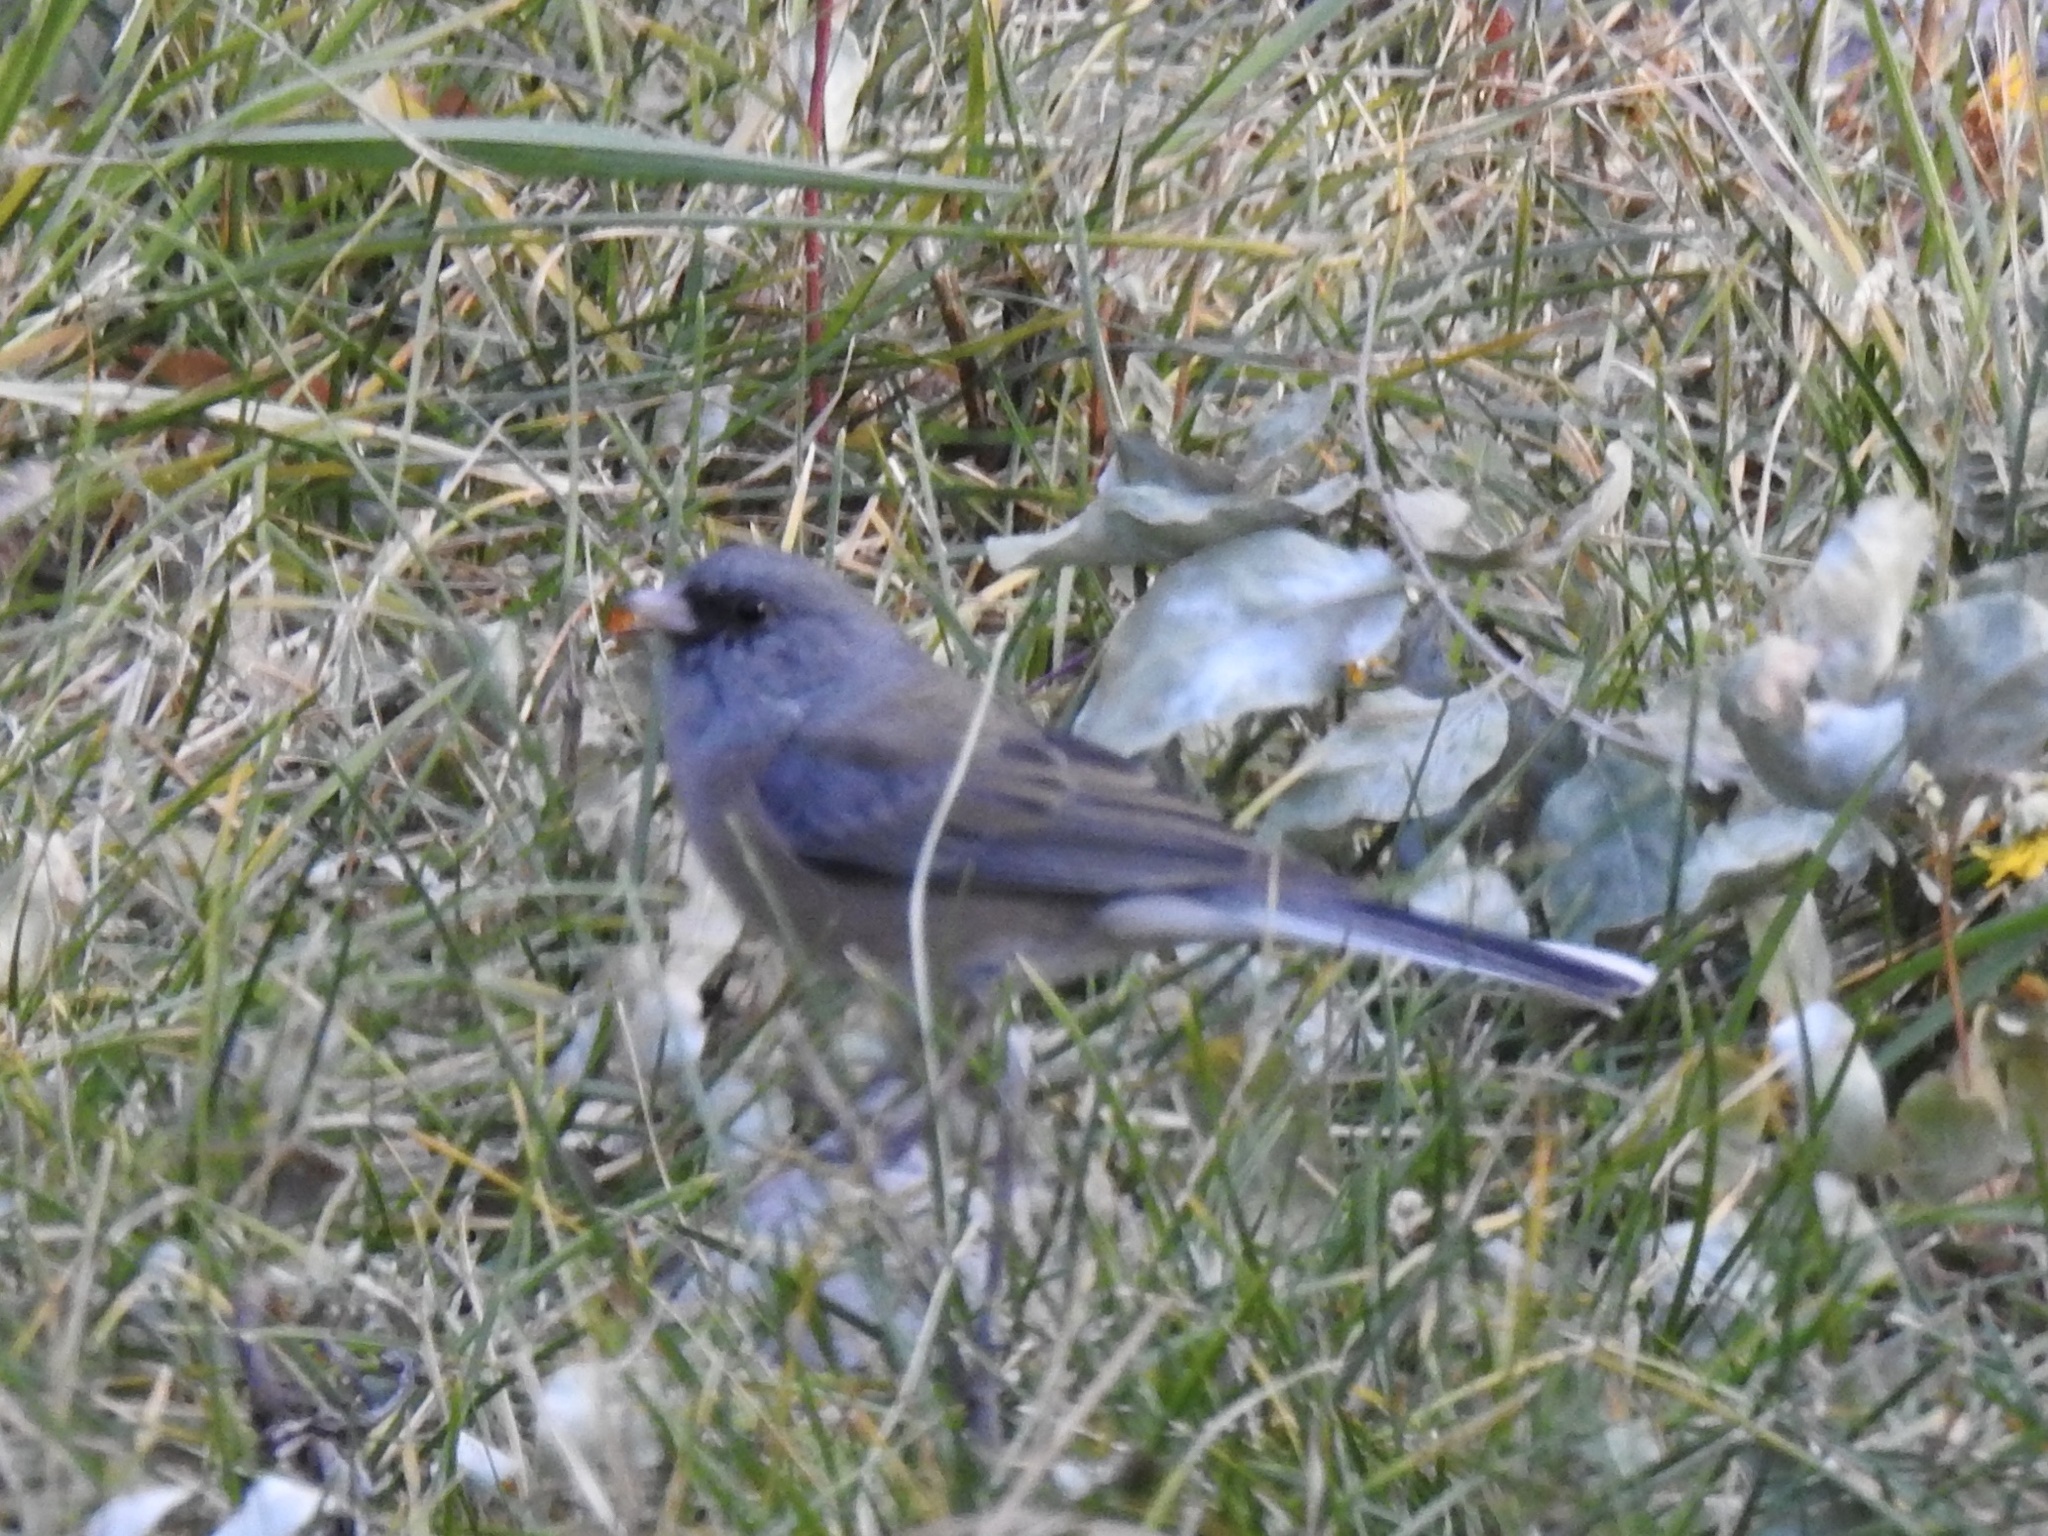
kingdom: Animalia
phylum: Chordata
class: Aves
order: Passeriformes
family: Passerellidae
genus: Junco
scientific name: Junco hyemalis
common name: Dark-eyed junco
